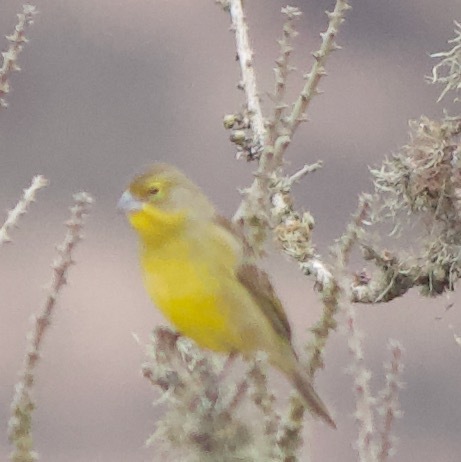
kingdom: Animalia
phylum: Chordata
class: Aves
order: Passeriformes
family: Thraupidae
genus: Sicalis
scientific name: Sicalis luteola
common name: Grassland yellow-finch
